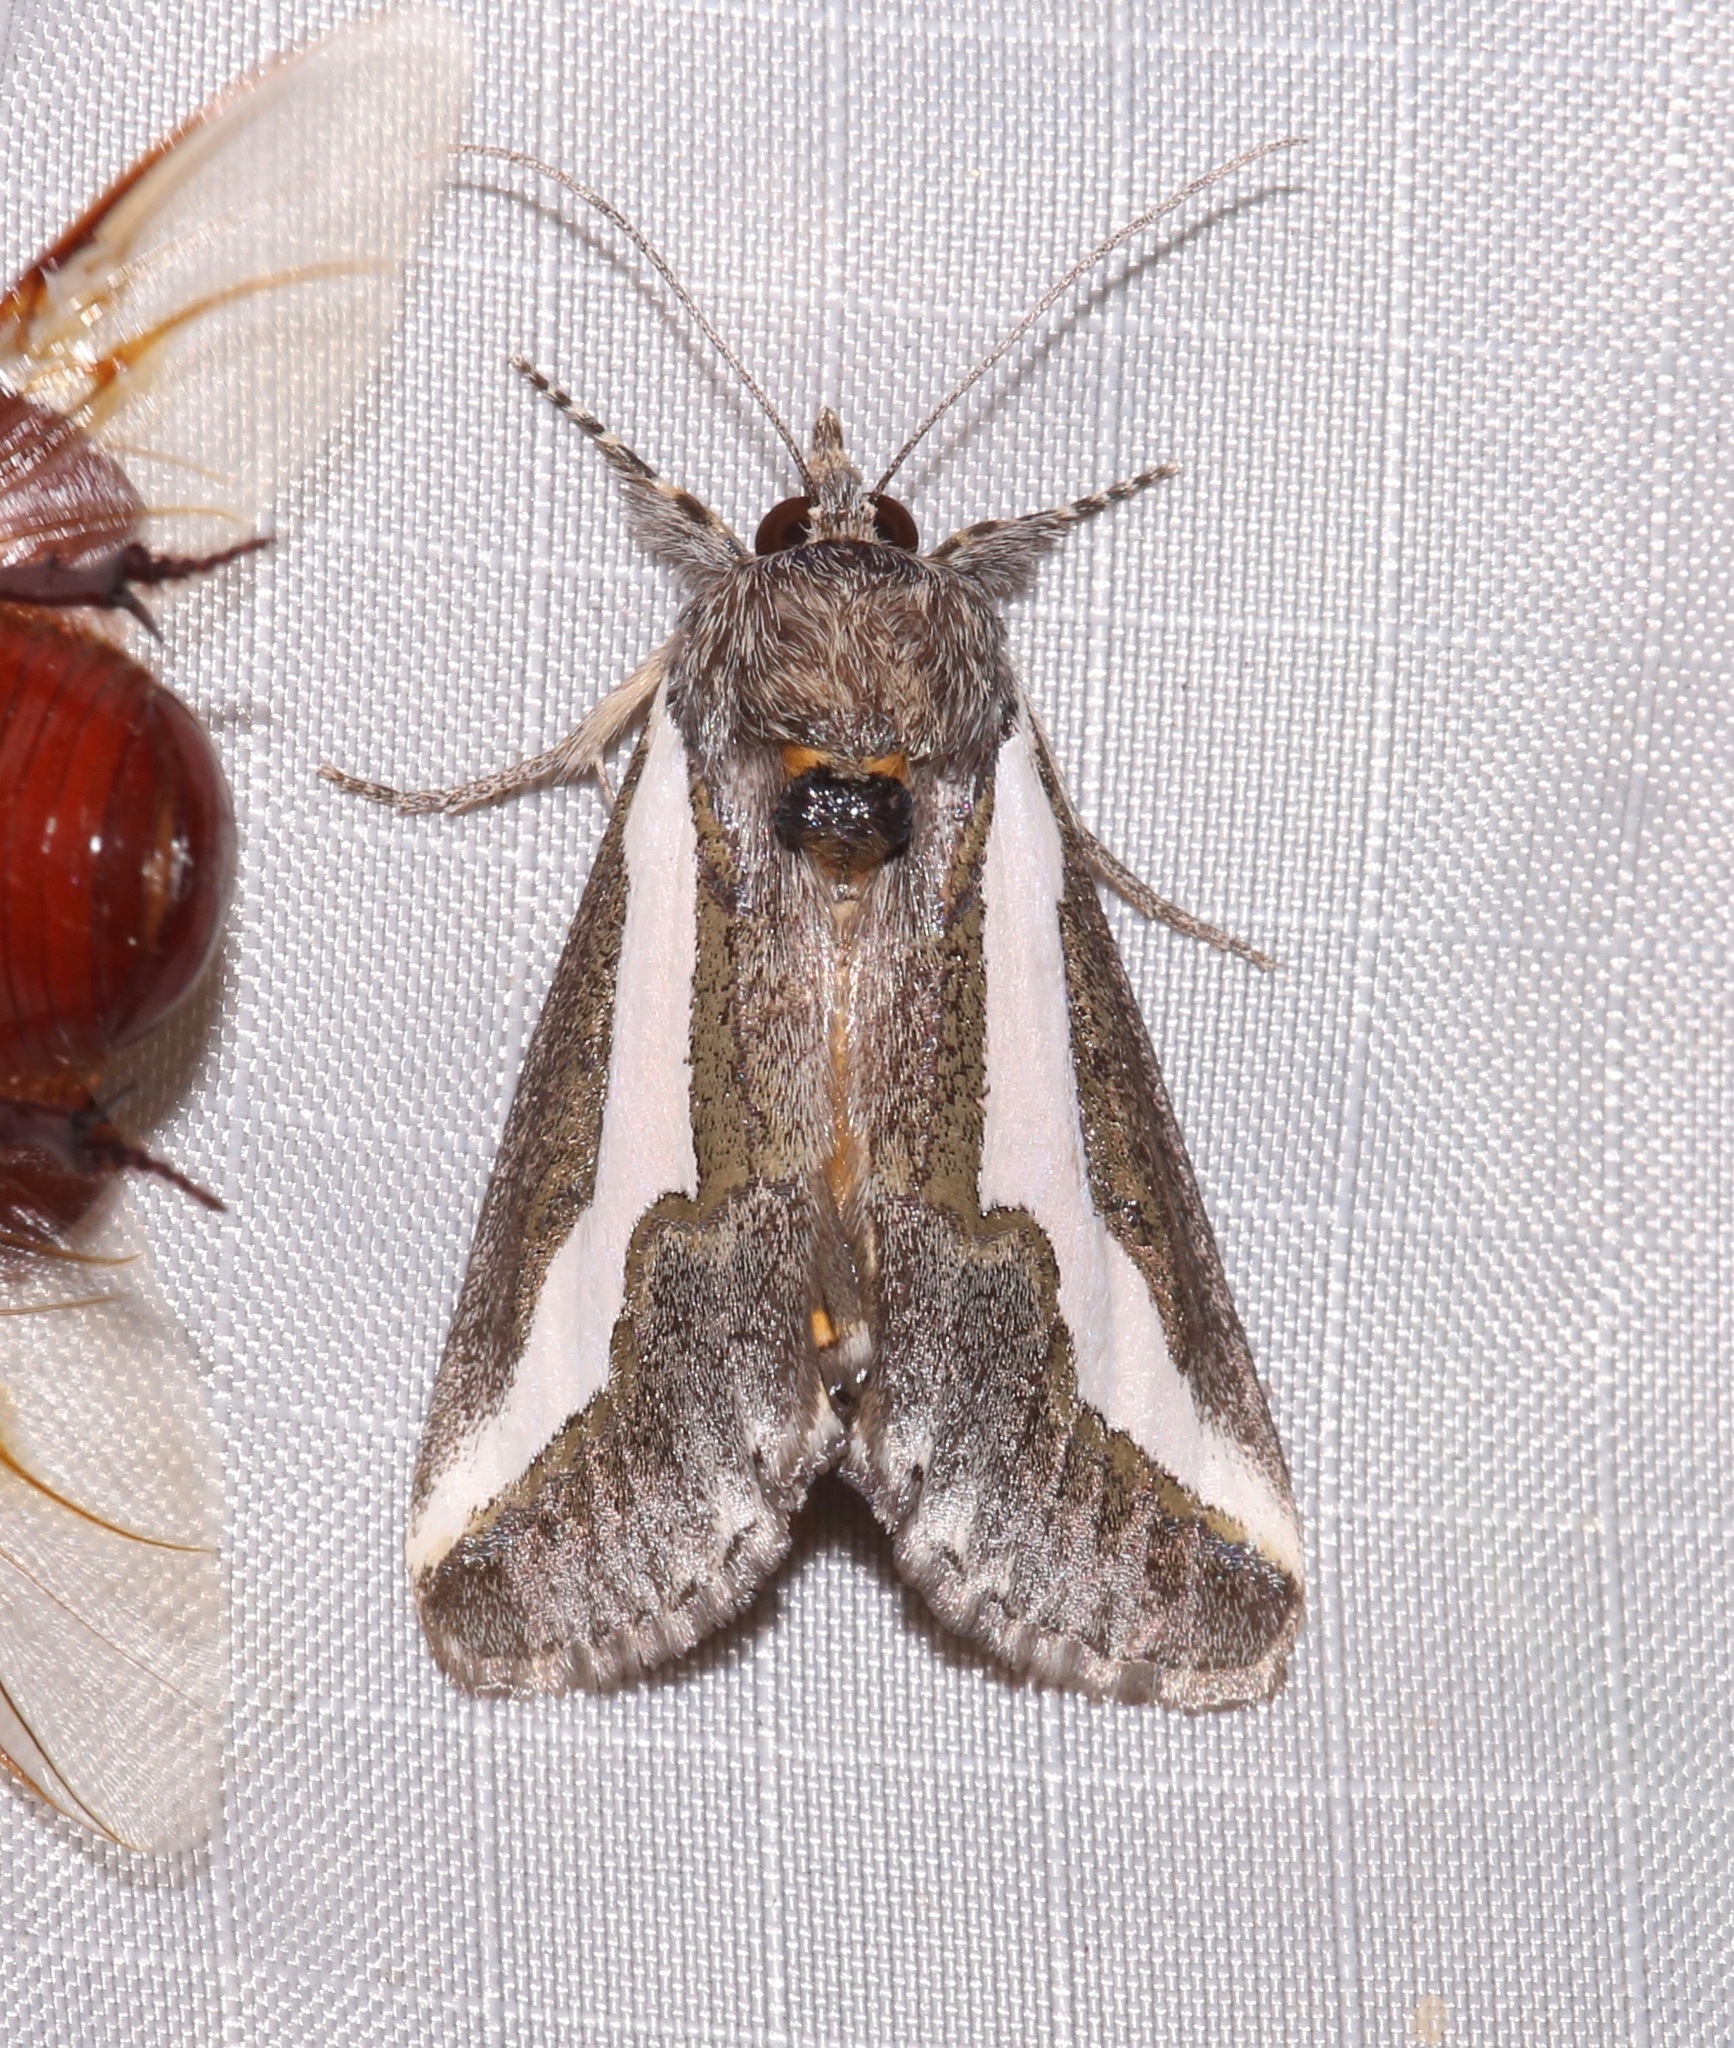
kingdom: Animalia
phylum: Arthropoda
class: Insecta
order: Lepidoptera
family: Noctuidae
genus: Euscirrhopterus
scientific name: Euscirrhopterus cosyra
